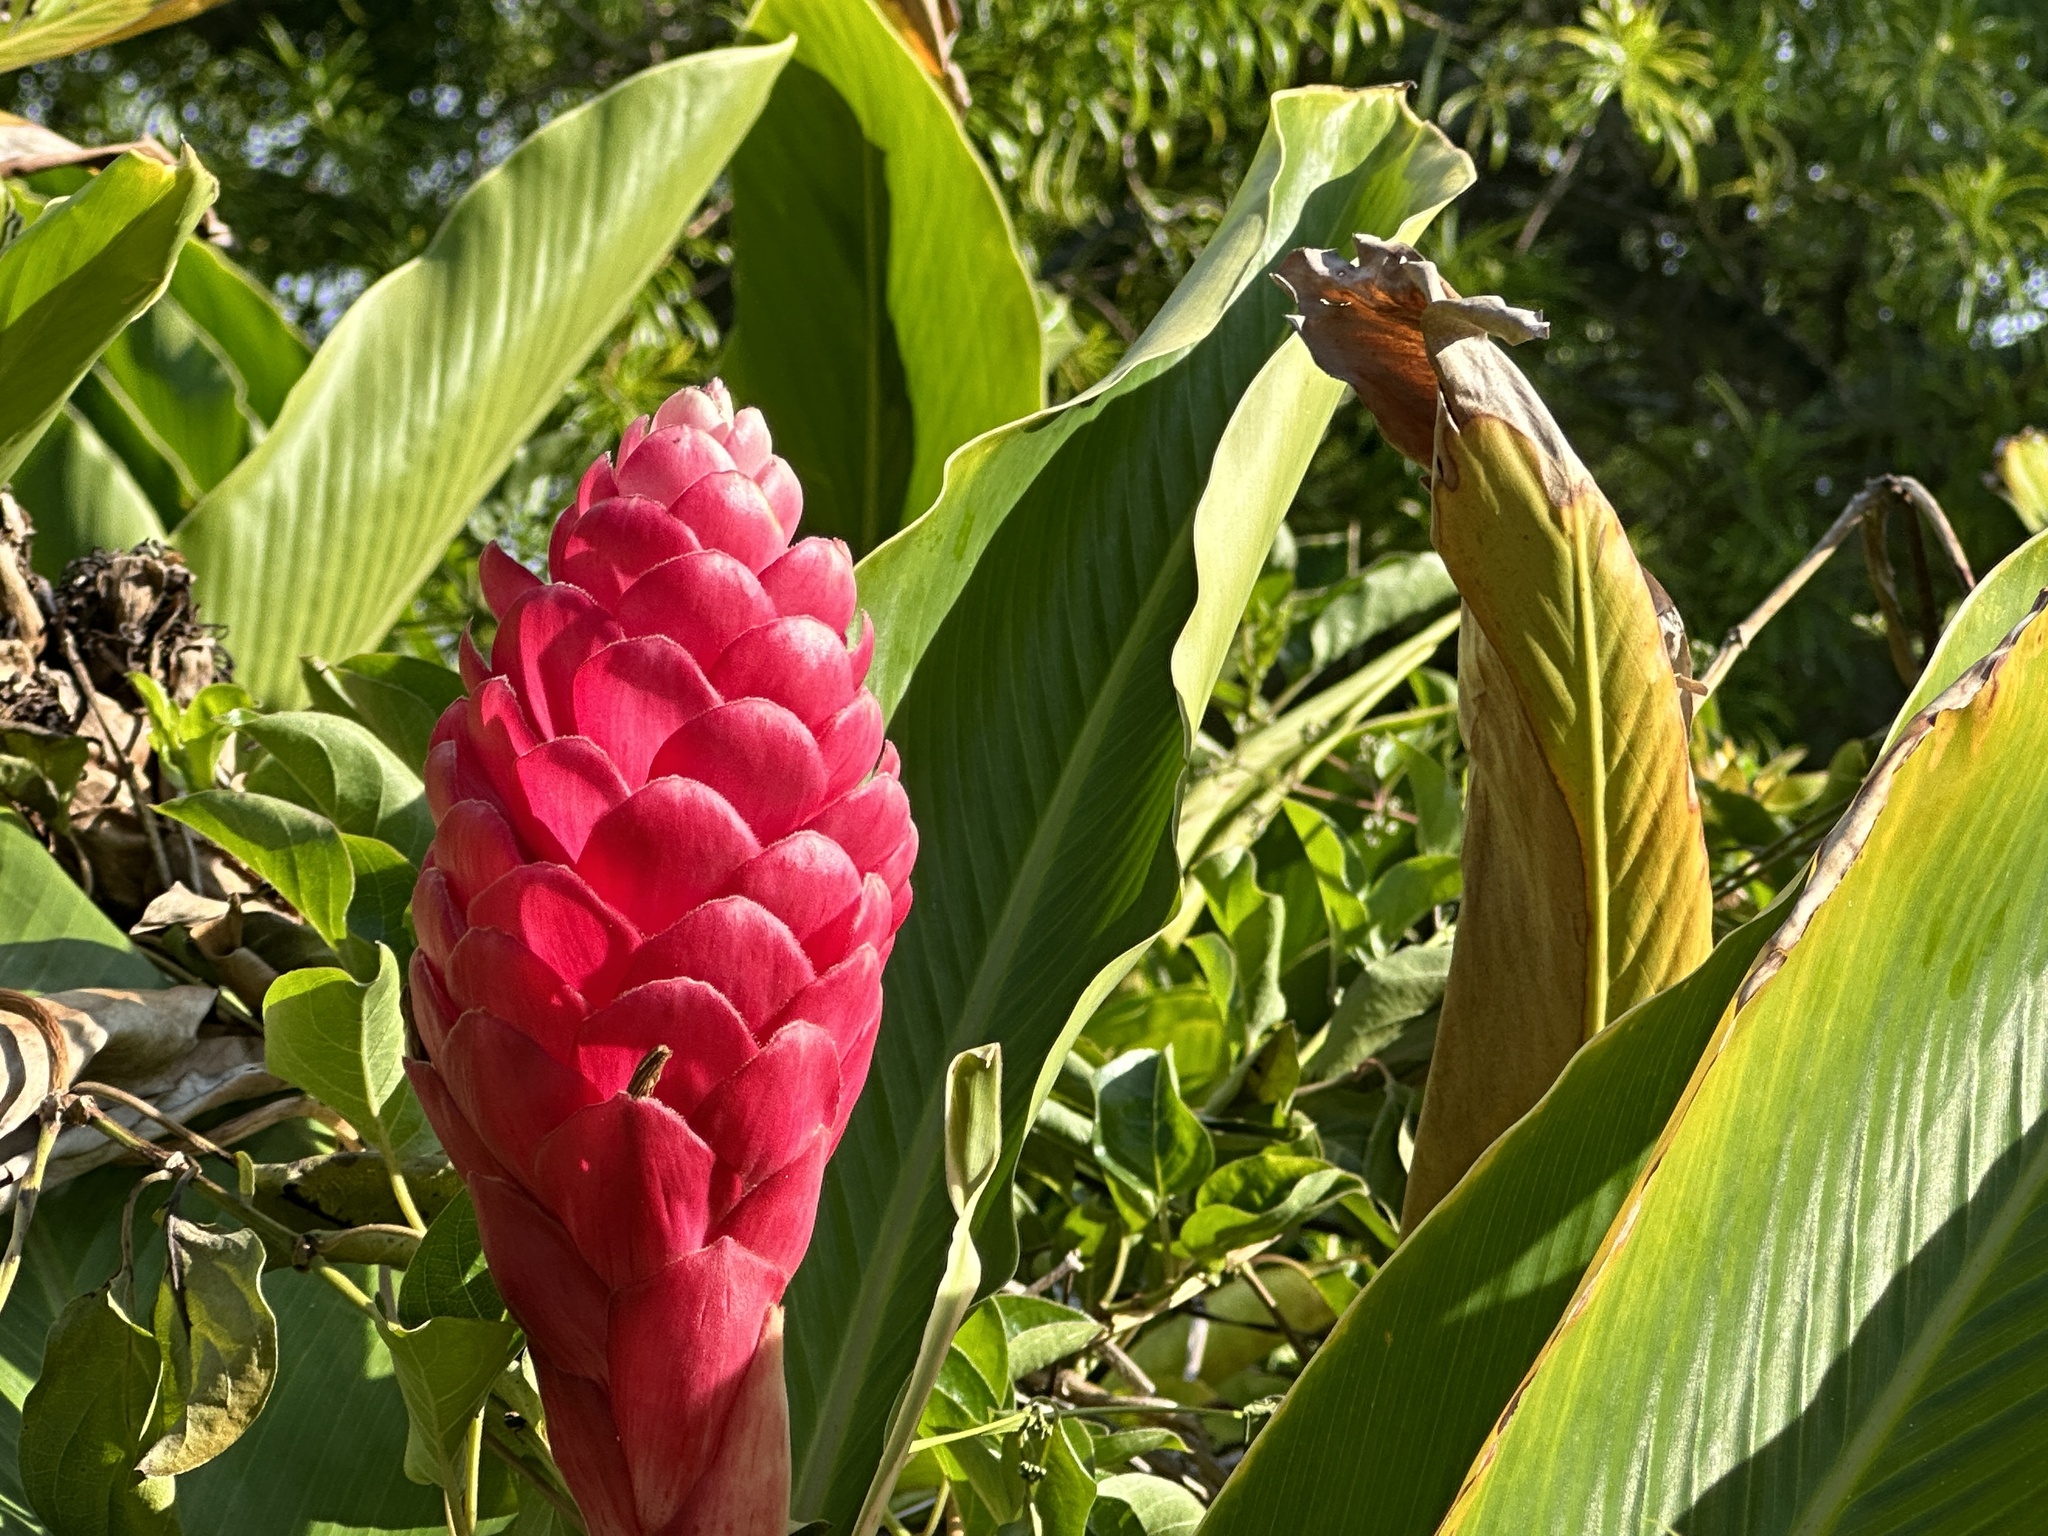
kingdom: Plantae
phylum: Tracheophyta
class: Liliopsida
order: Zingiberales
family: Zingiberaceae
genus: Alpinia
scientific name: Alpinia purpurata
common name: Red ginger
